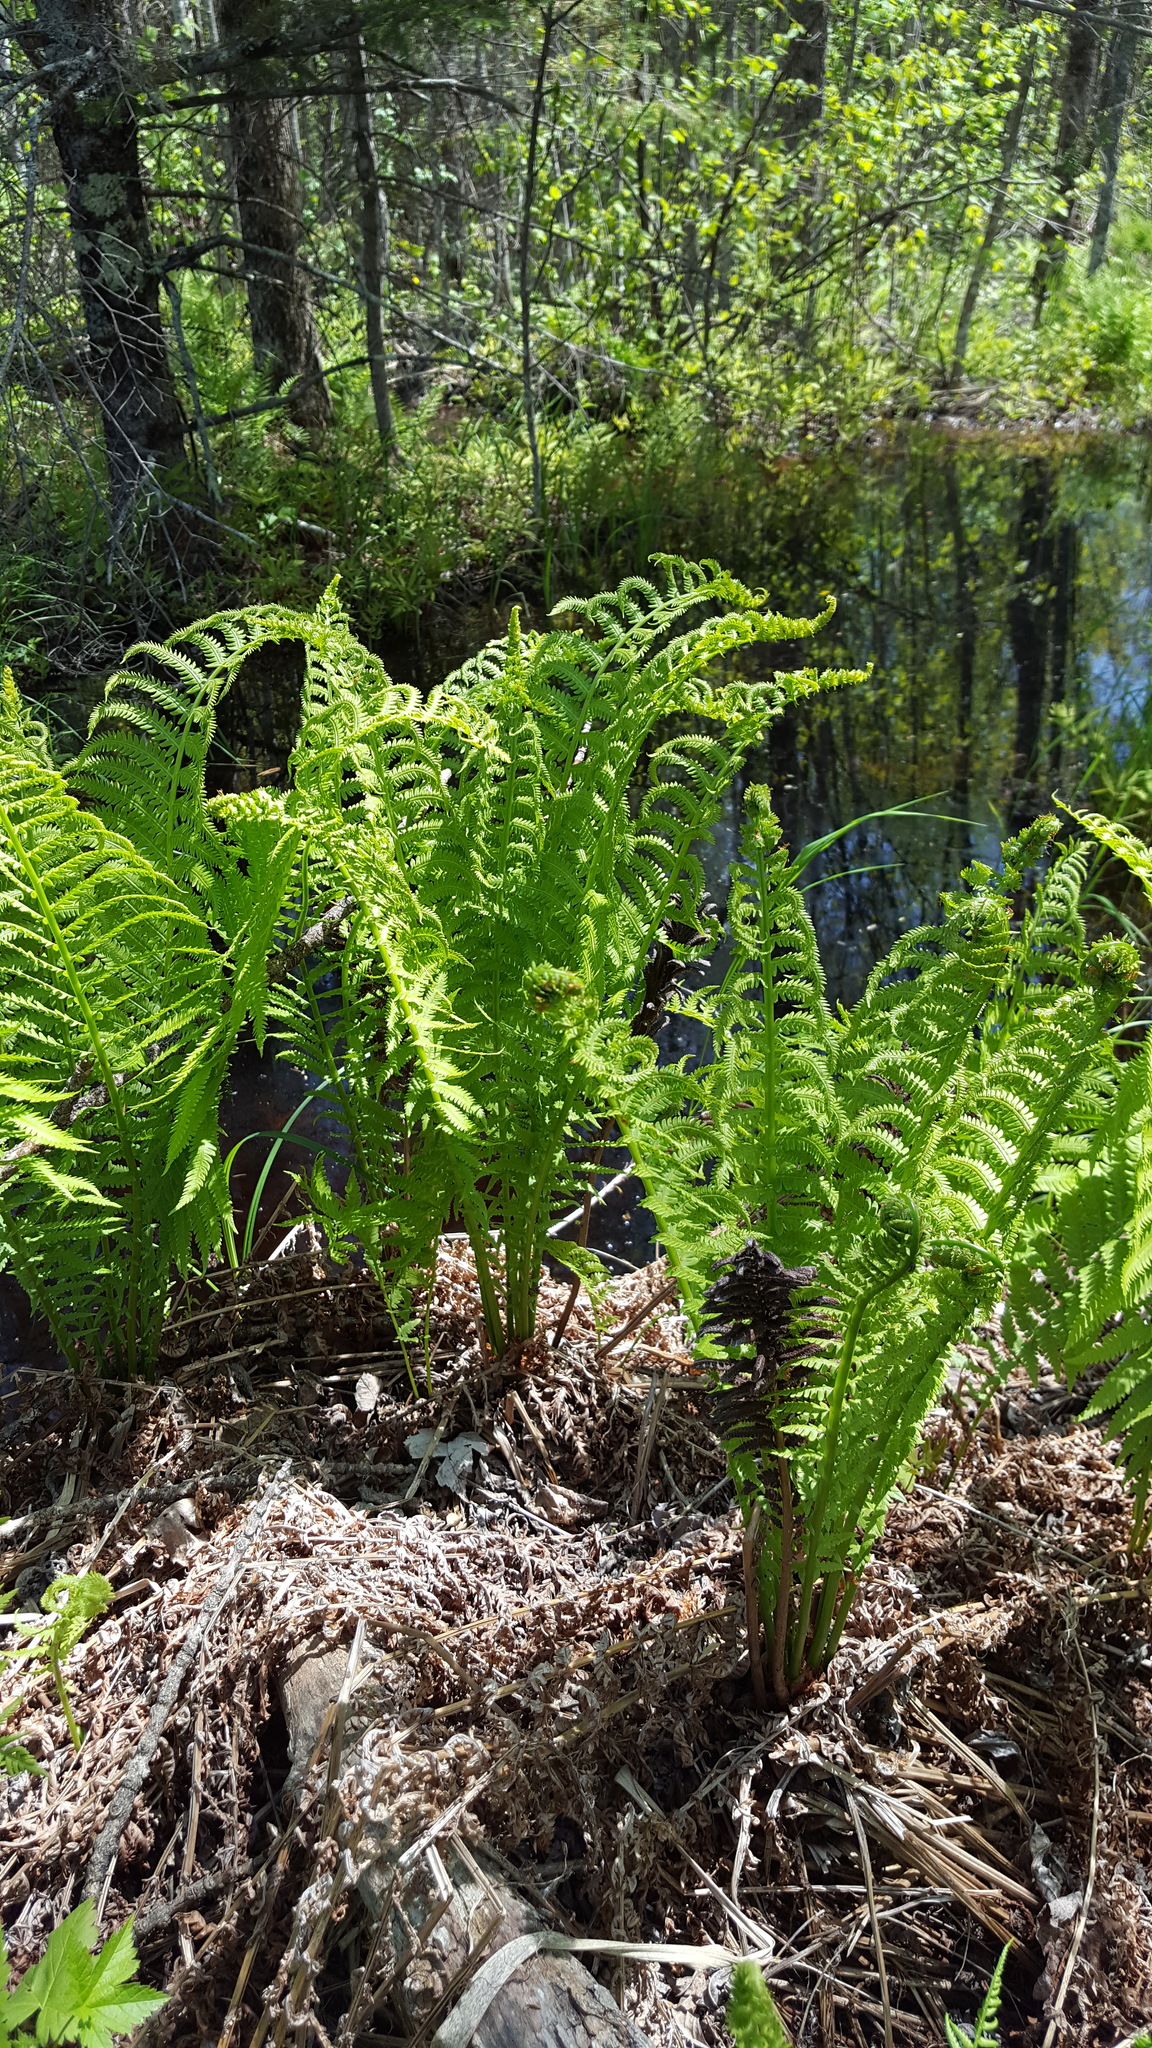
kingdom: Plantae
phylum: Tracheophyta
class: Polypodiopsida
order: Polypodiales
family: Onocleaceae
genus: Matteuccia
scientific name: Matteuccia struthiopteris
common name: Ostrich fern
